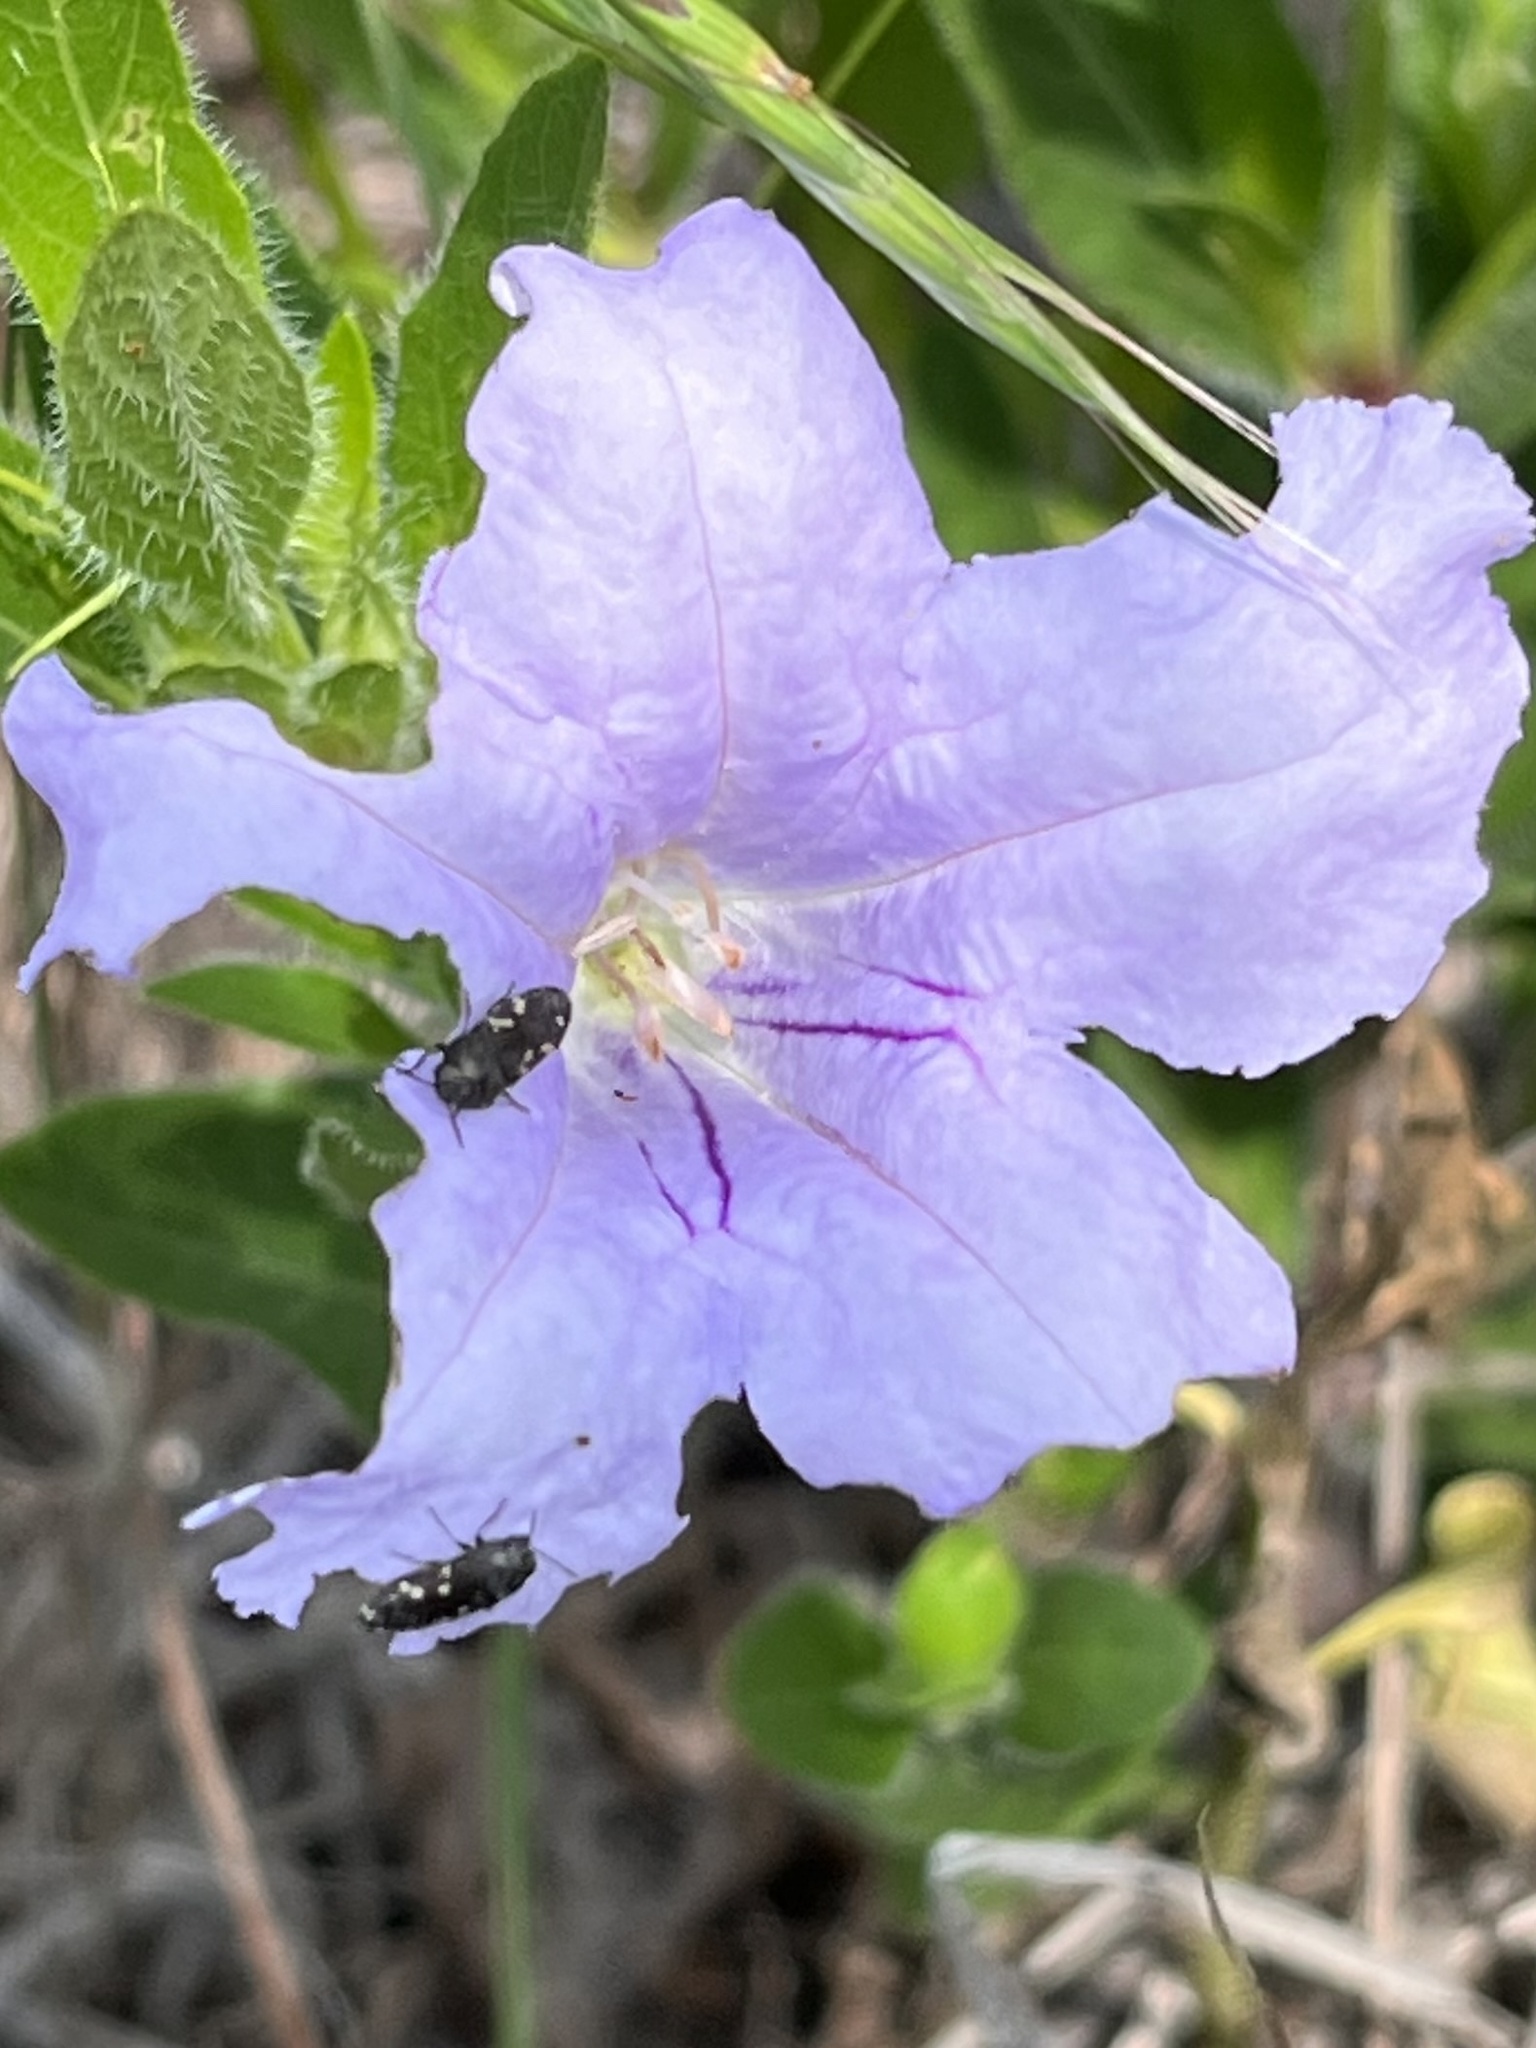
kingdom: Animalia
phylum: Arthropoda
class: Insecta
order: Coleoptera
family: Buprestidae
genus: Acmaeodera
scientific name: Acmaeodera tubulus
